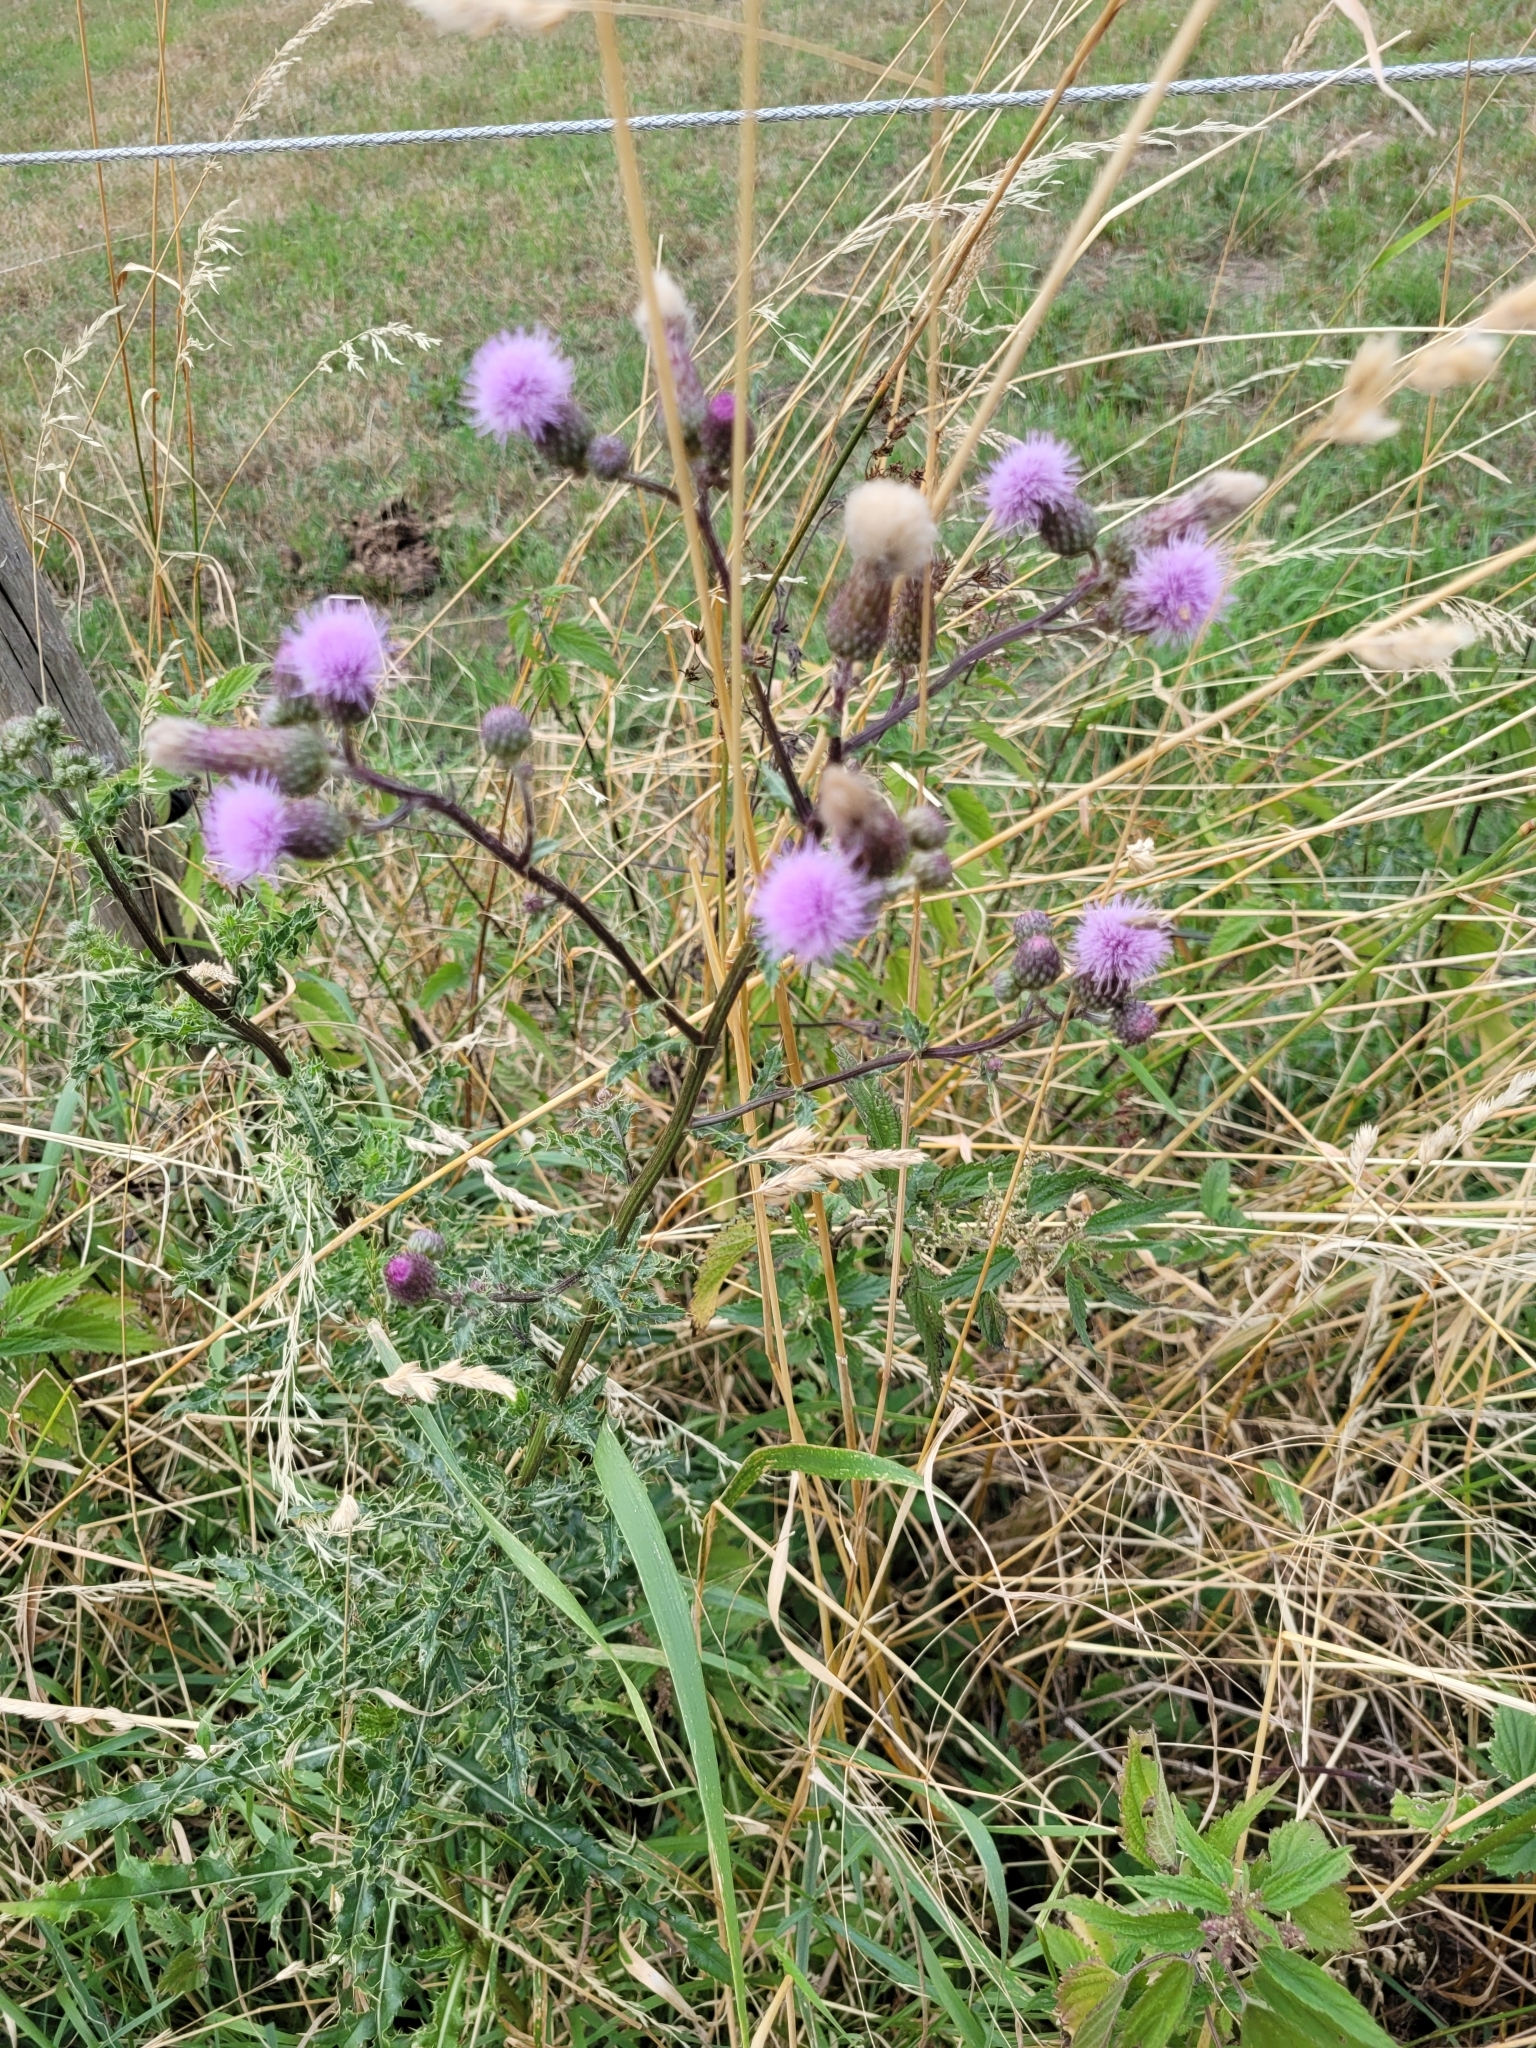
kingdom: Plantae
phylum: Tracheophyta
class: Magnoliopsida
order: Asterales
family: Asteraceae
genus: Cirsium
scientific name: Cirsium arvense
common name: Creeping thistle
